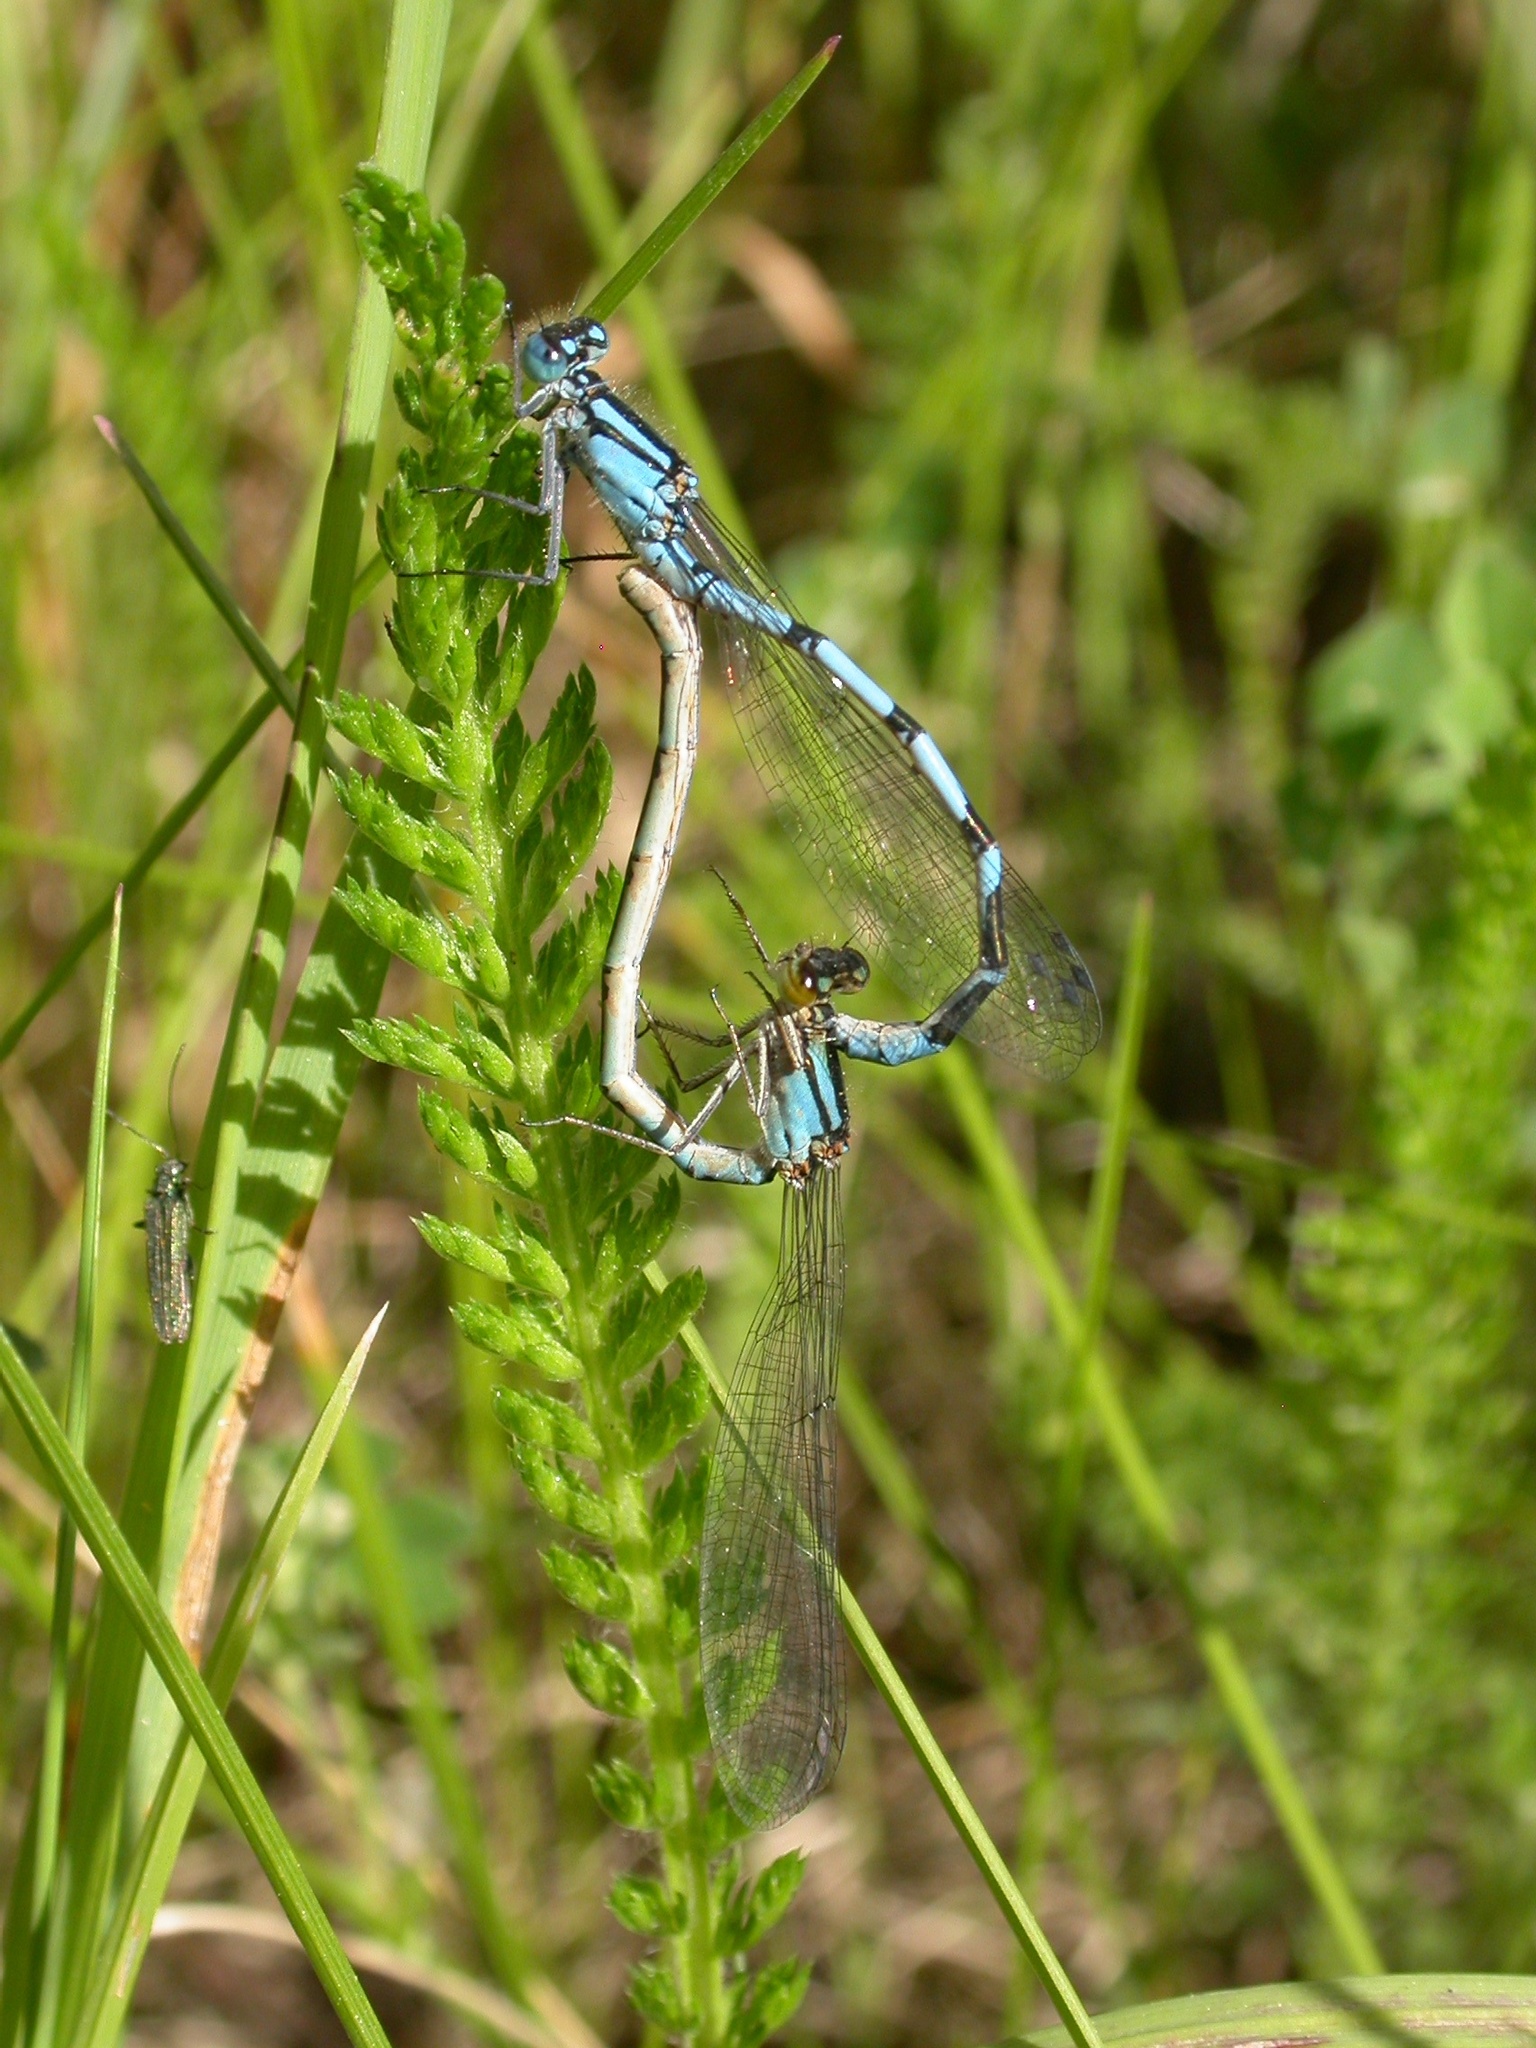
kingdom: Animalia
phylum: Arthropoda
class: Insecta
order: Odonata
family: Coenagrionidae
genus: Enallagma
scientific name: Enallagma cyathigerum
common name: Common blue damselfly
